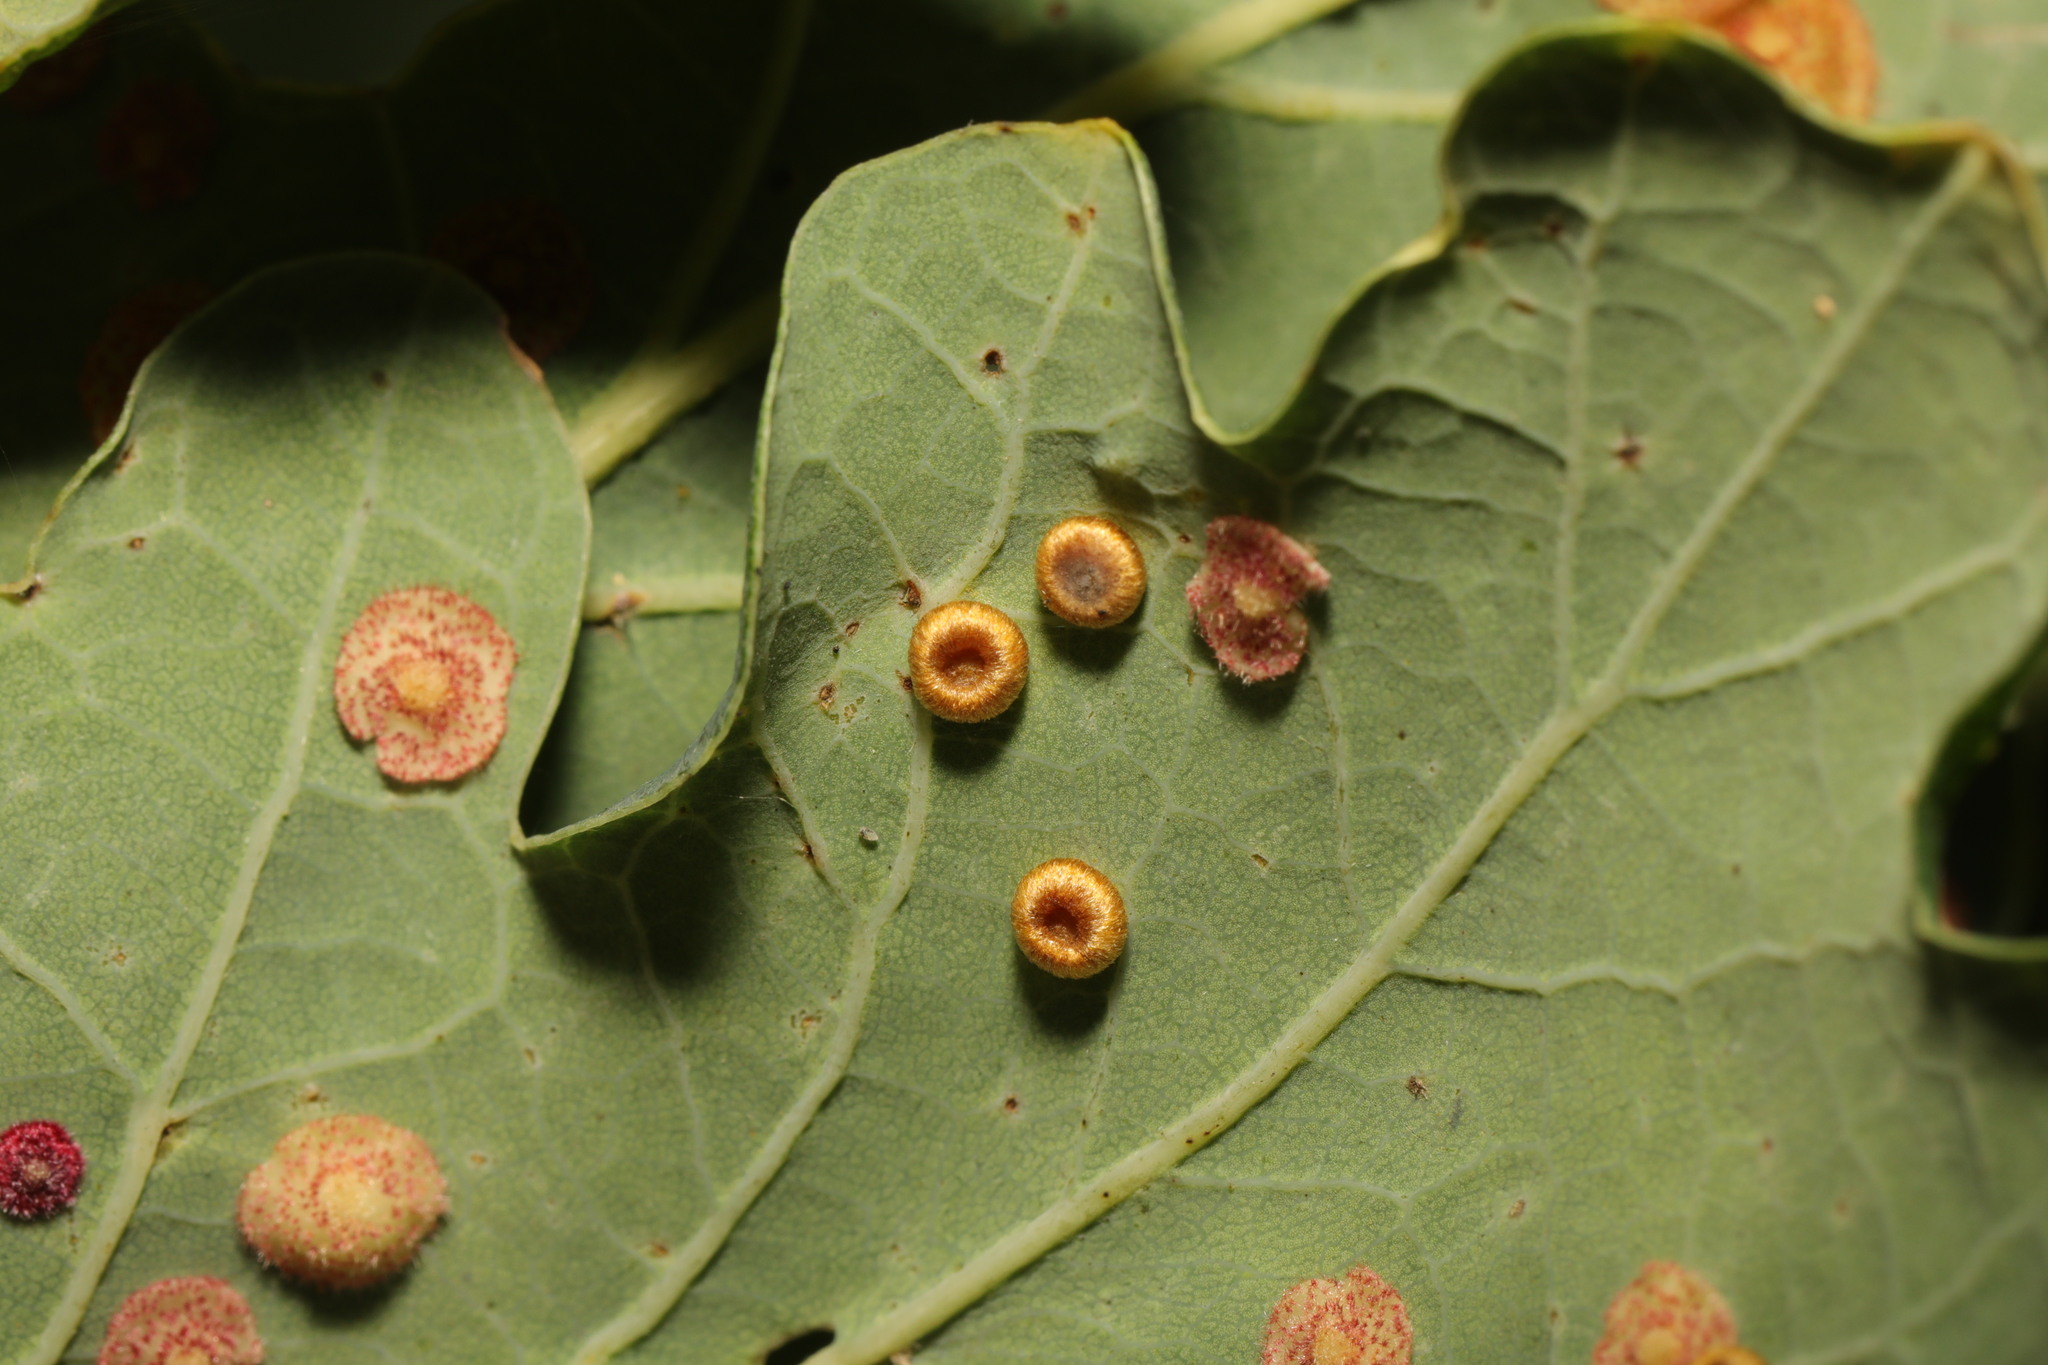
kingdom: Animalia
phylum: Arthropoda
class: Insecta
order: Hymenoptera
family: Cynipidae
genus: Neuroterus
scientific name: Neuroterus numismalis
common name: Silk-button spangle gall
